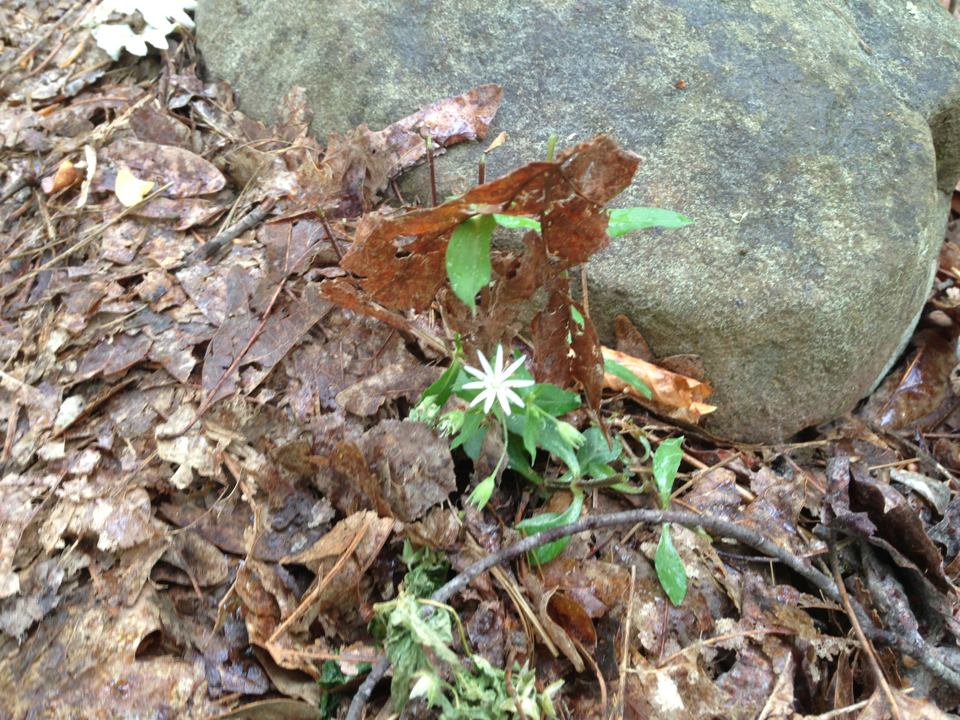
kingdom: Plantae
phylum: Tracheophyta
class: Magnoliopsida
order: Caryophyllales
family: Caryophyllaceae
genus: Stellaria
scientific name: Stellaria pubera
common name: Star chickweed
